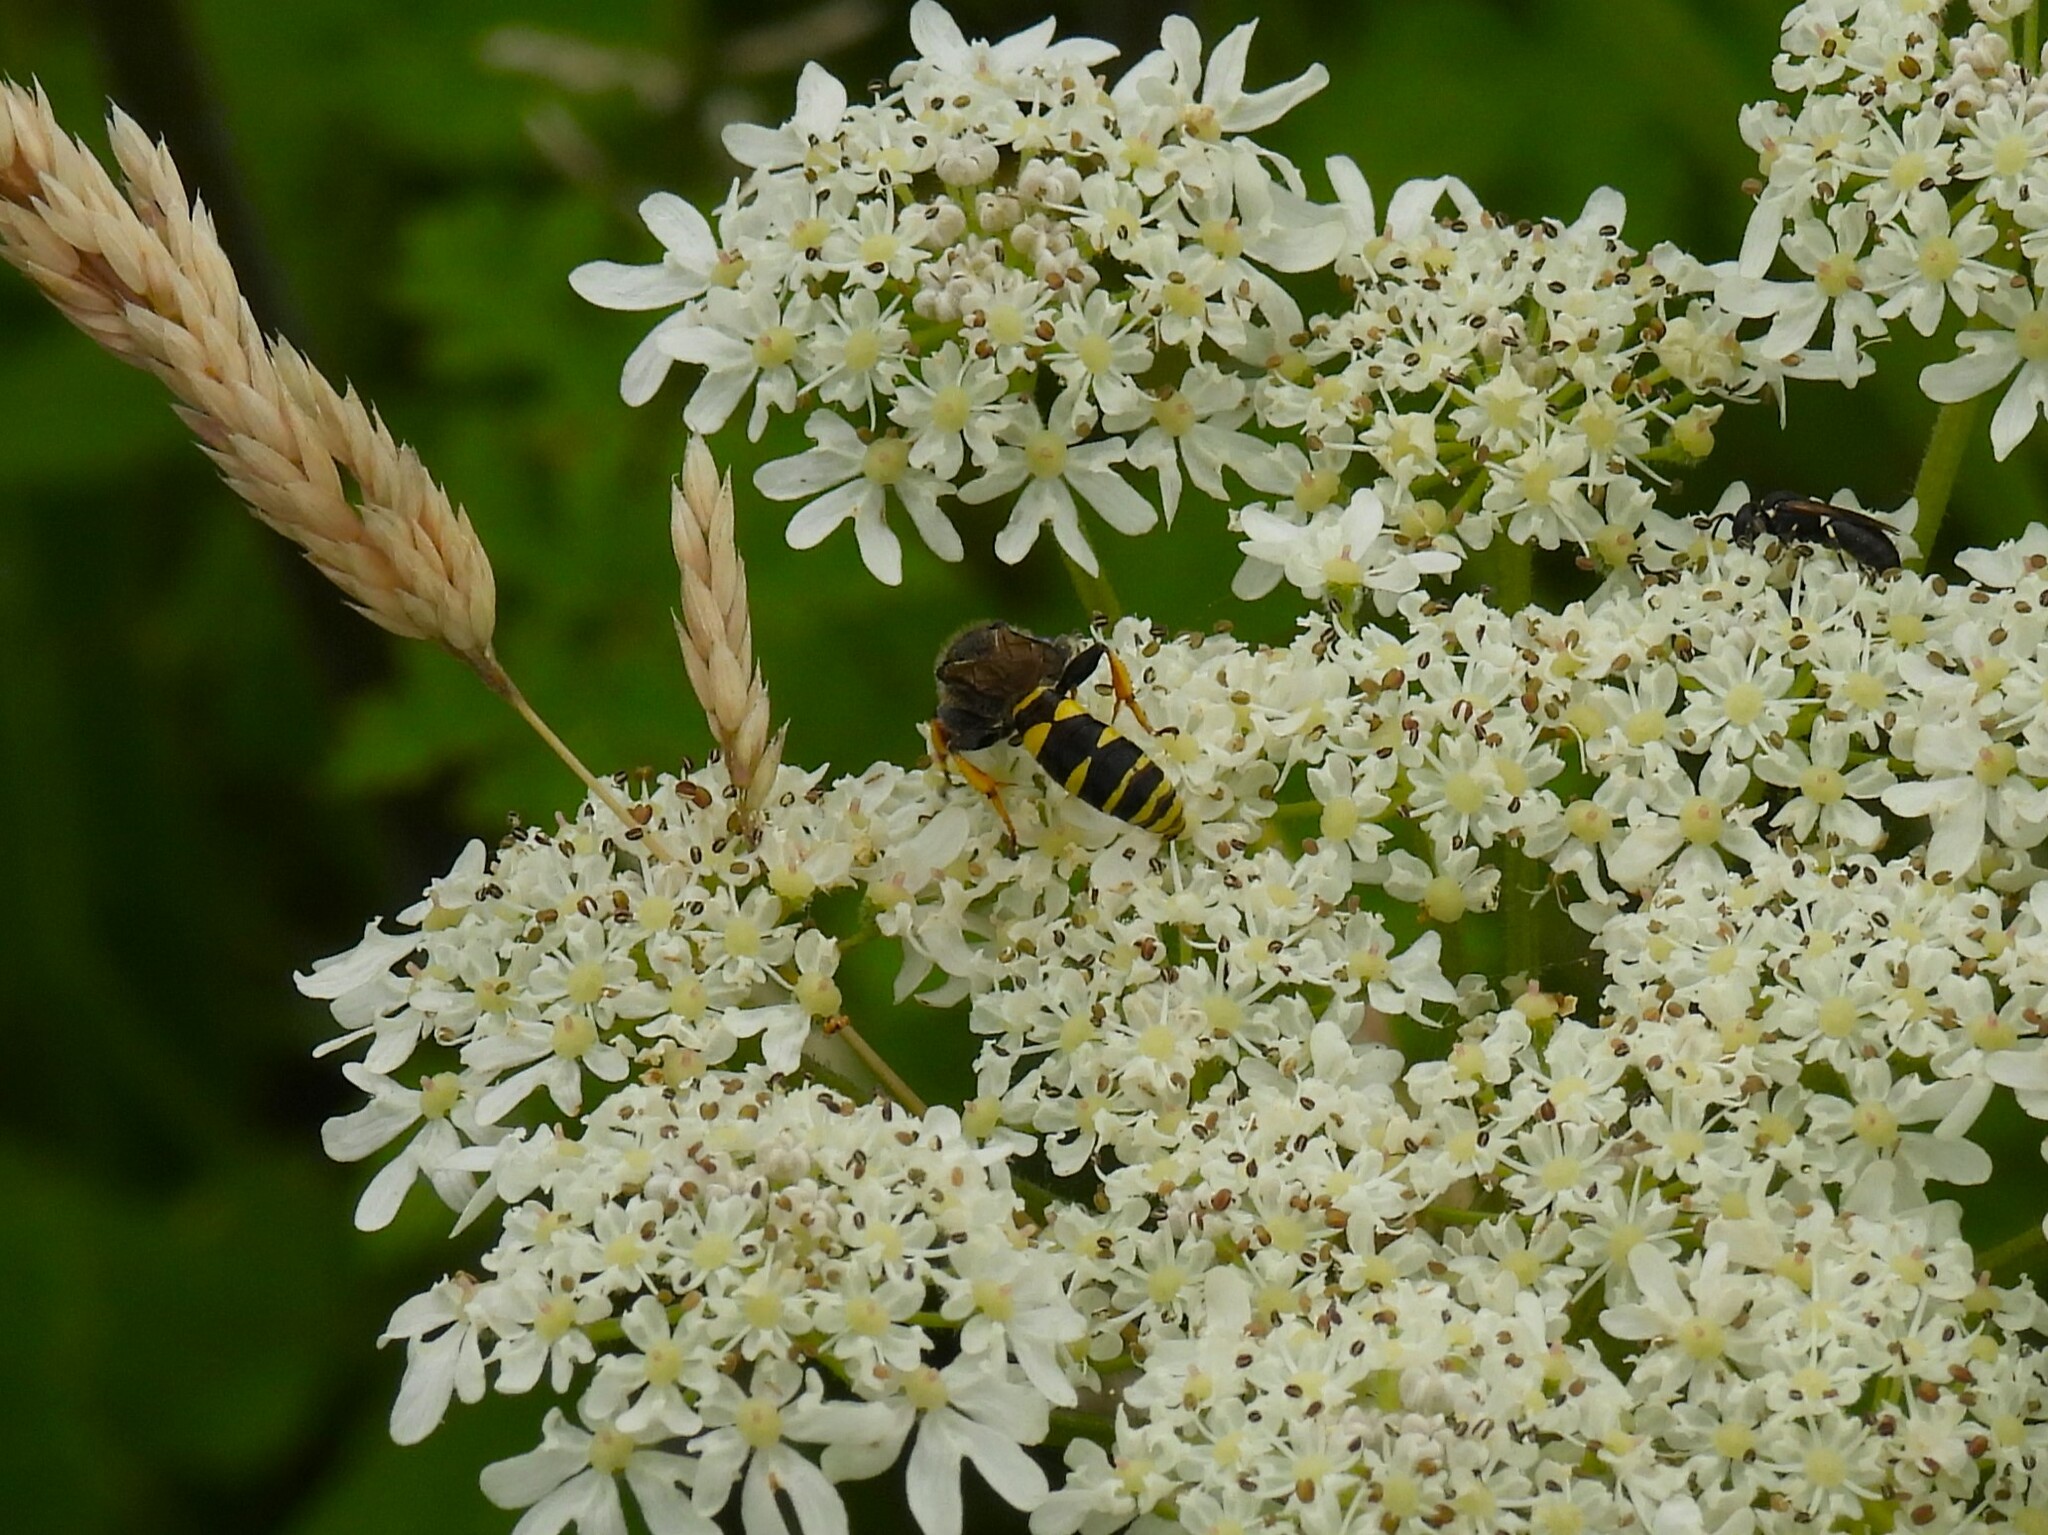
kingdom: Animalia
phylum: Arthropoda
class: Insecta
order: Hymenoptera
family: Crabronidae
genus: Crabro
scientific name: Crabro cribrarius
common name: Slender bodied digger wasp
